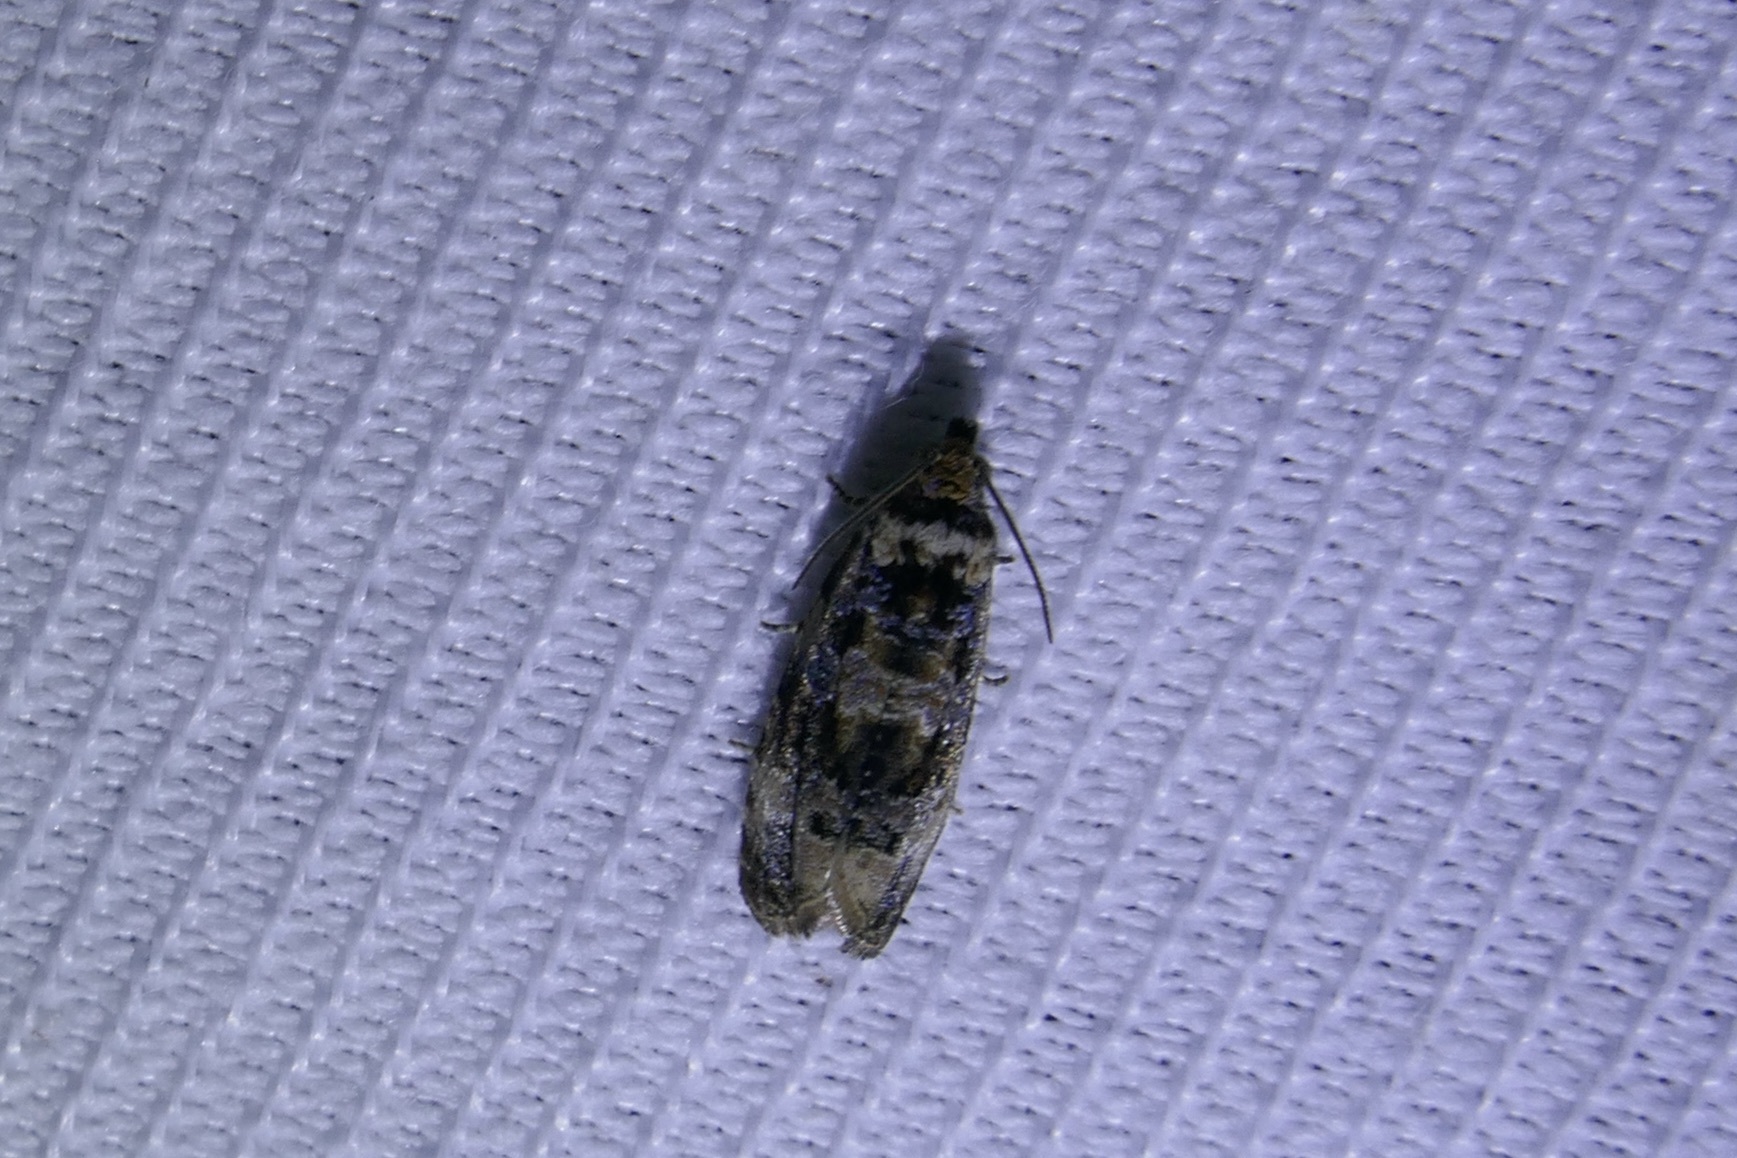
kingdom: Animalia
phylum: Arthropoda
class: Insecta
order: Lepidoptera
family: Tortricidae
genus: Lobesia
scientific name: Lobesia botrana
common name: European vine moth
